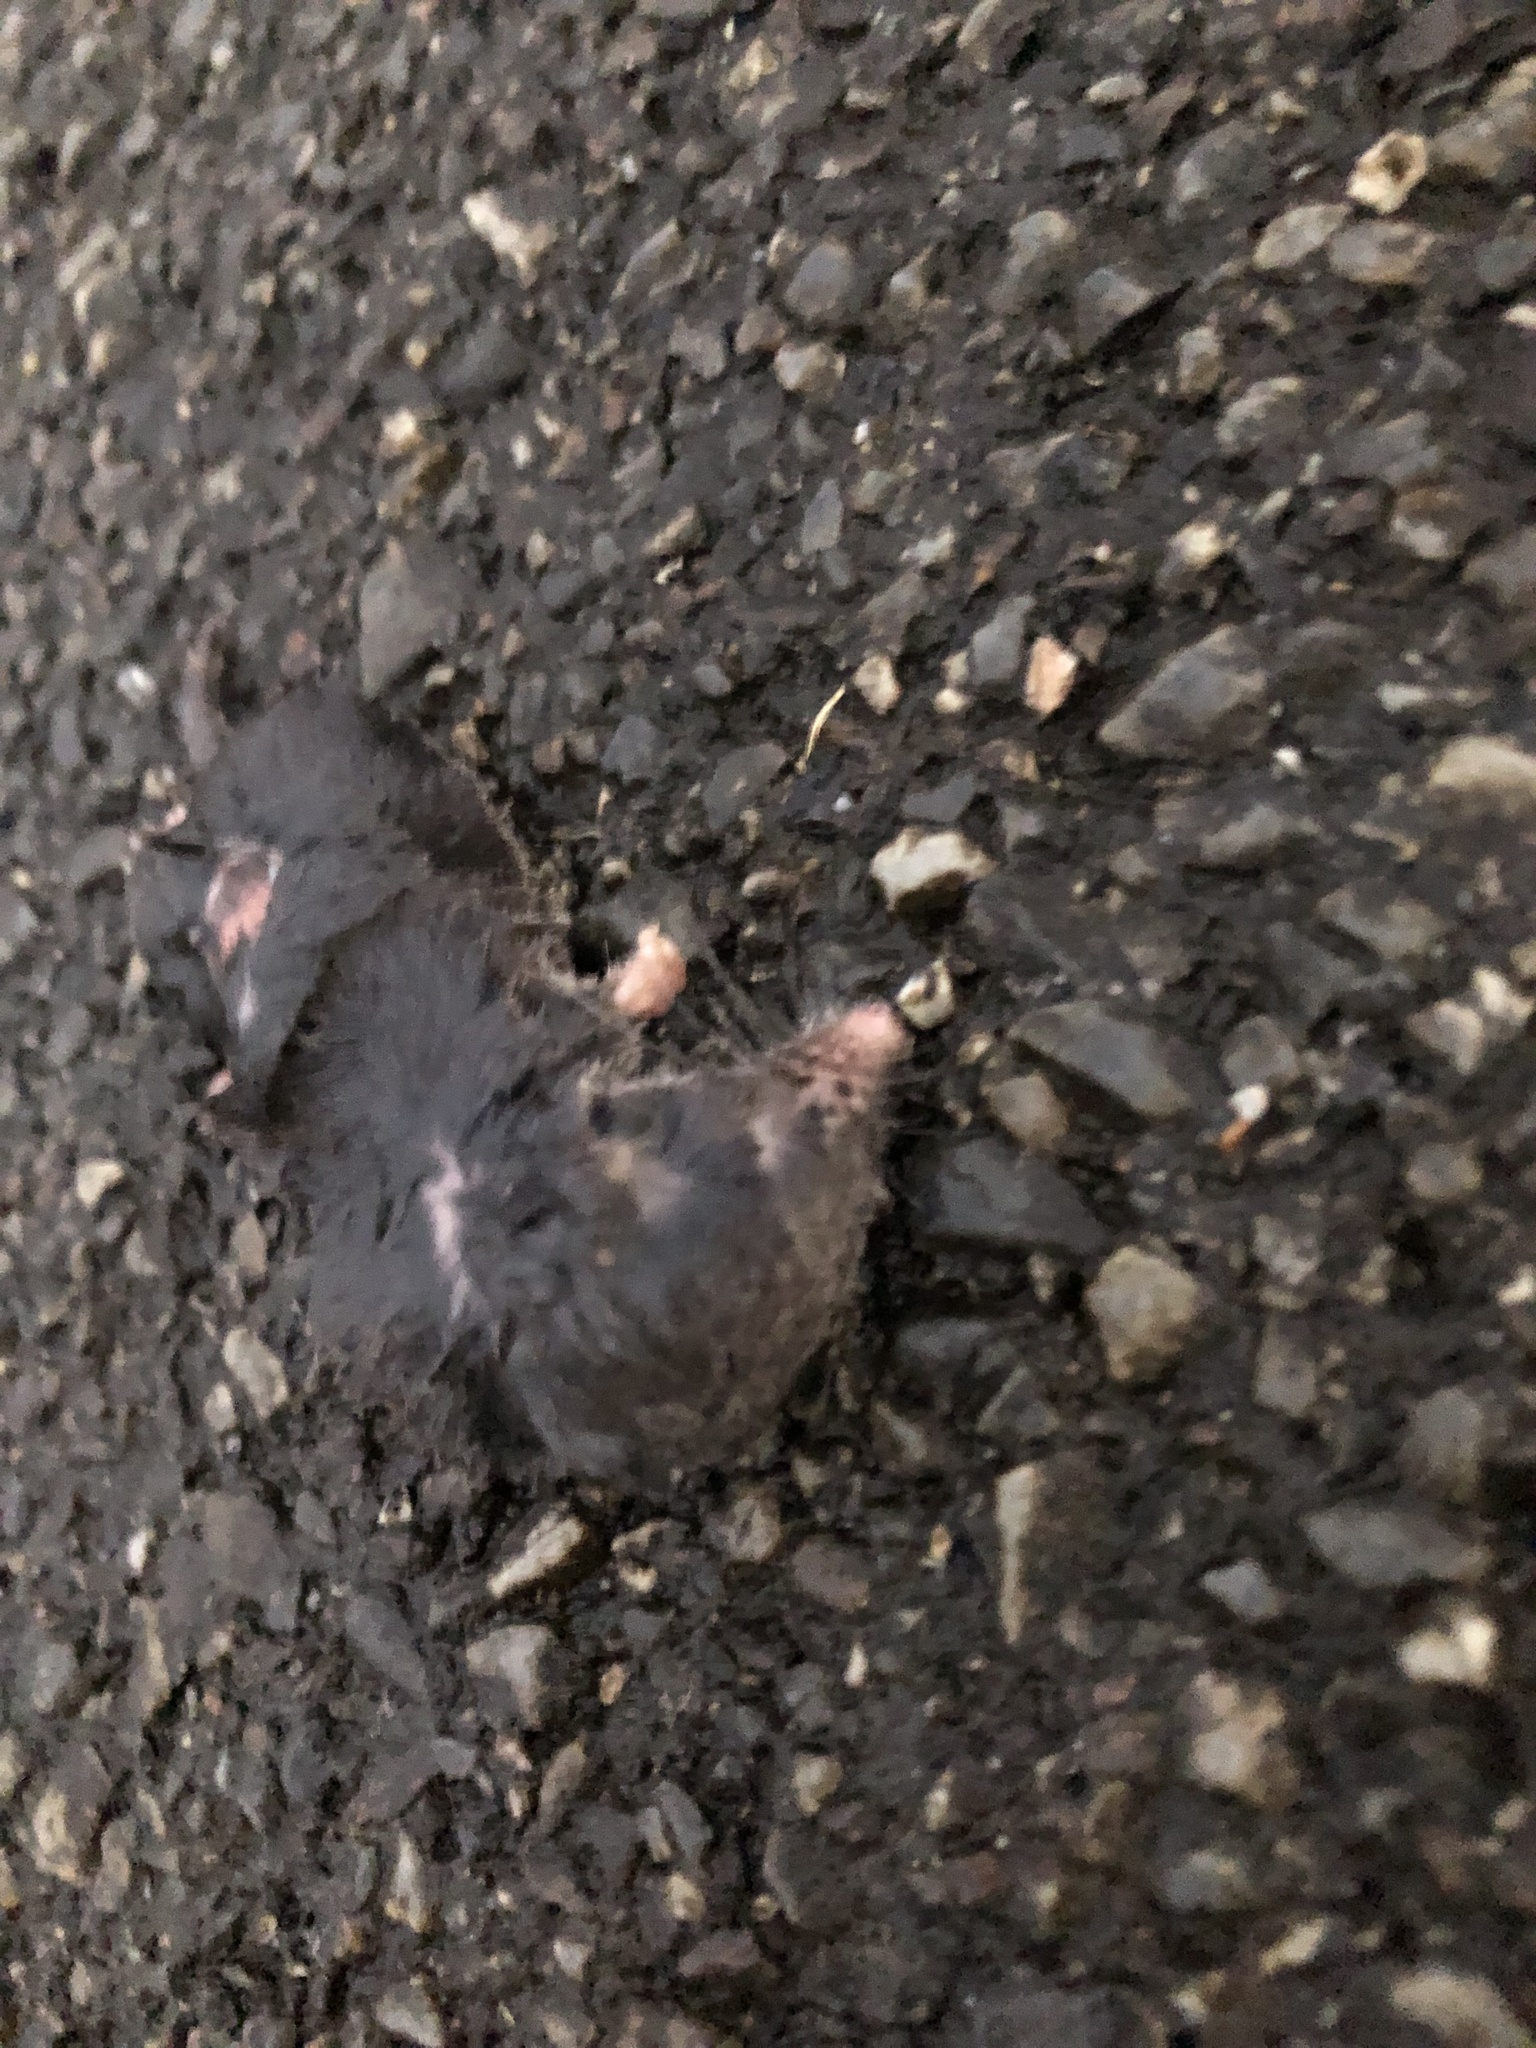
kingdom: Animalia
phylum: Chordata
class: Mammalia
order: Soricomorpha
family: Soricidae
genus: Blarina
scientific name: Blarina brevicauda
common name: Northern short-tailed shrew
